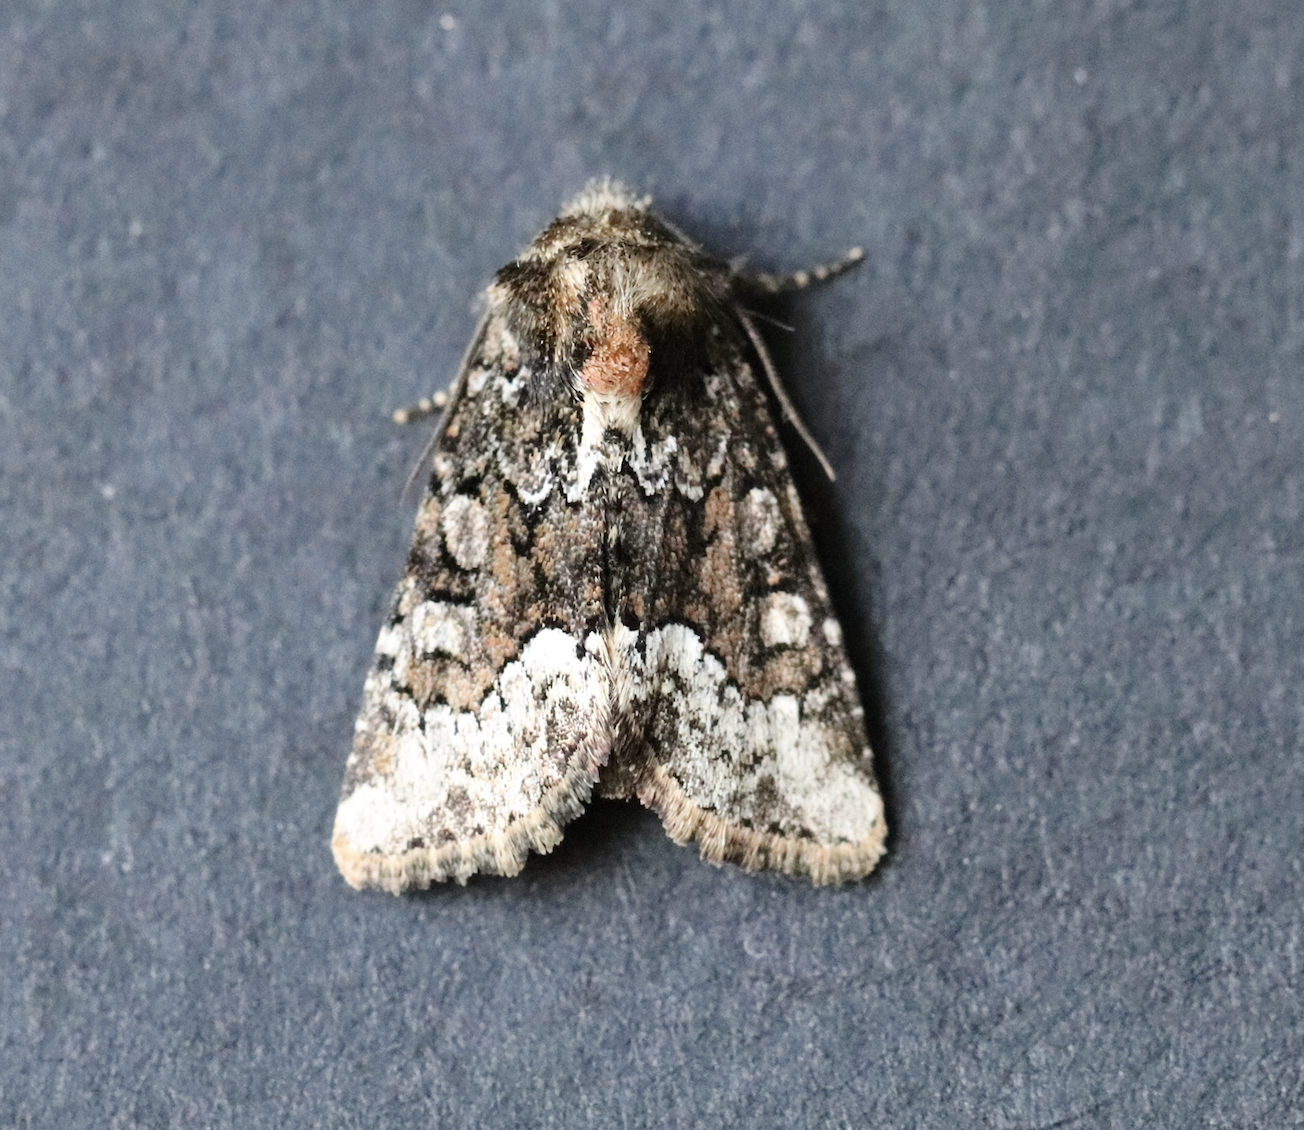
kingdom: Animalia
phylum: Arthropoda
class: Insecta
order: Lepidoptera
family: Noctuidae
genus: Oligia
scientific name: Oligia strigilis
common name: Marbled minor
